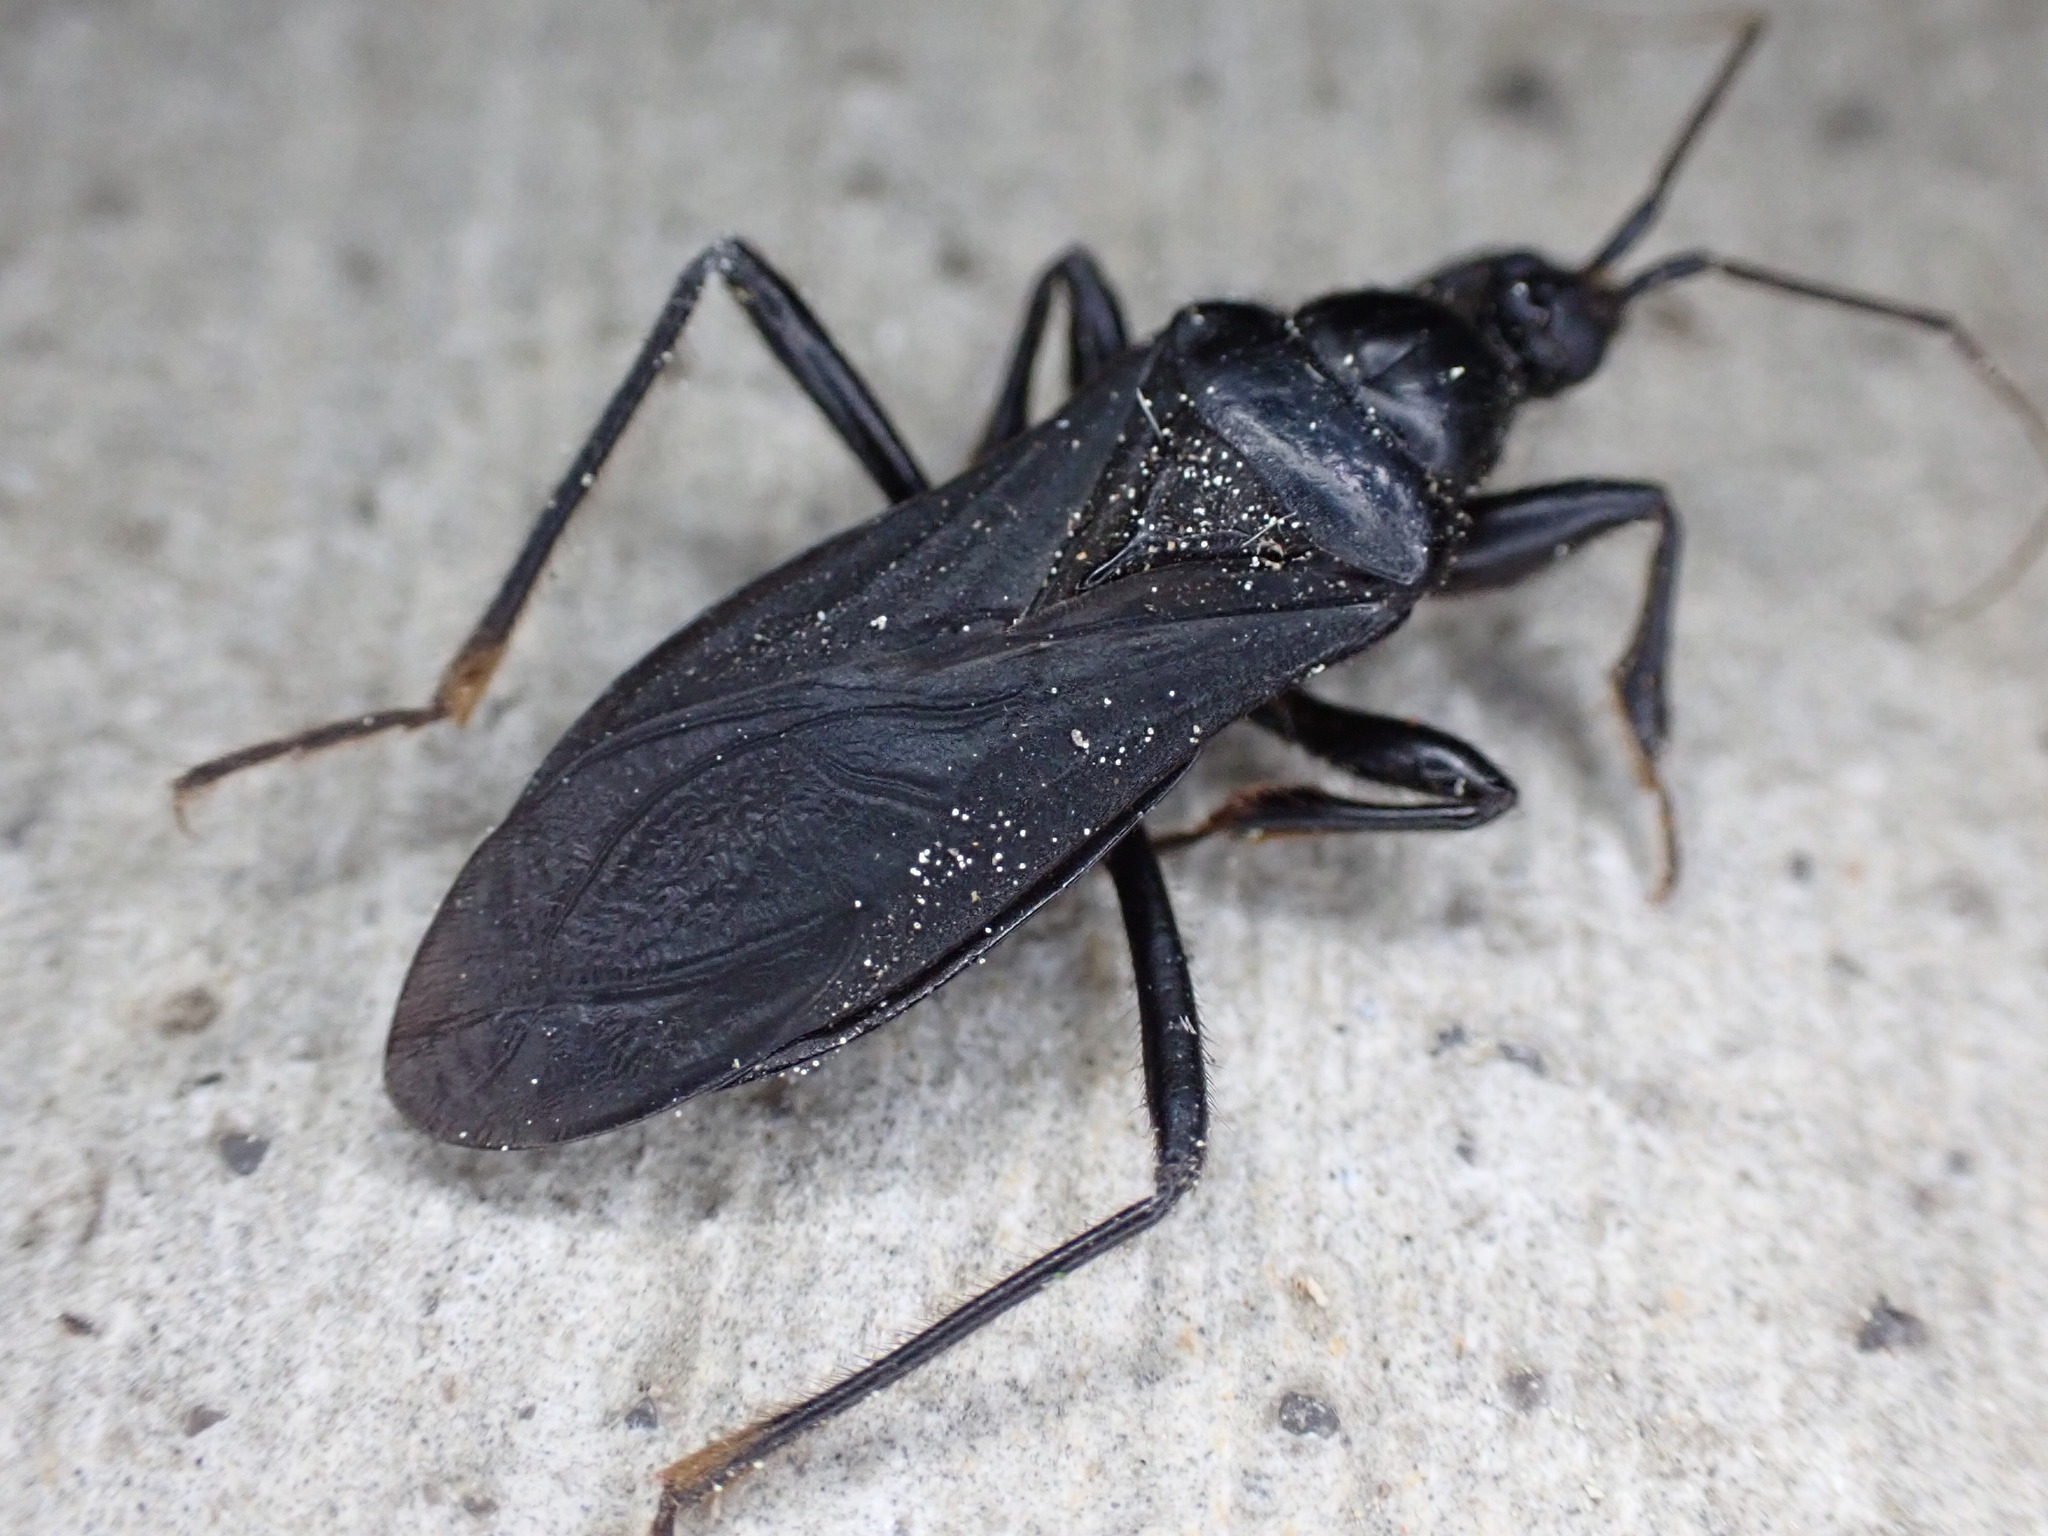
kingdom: Animalia
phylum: Arthropoda
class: Insecta
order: Hemiptera
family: Reduviidae
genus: Melanolestes
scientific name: Melanolestes picipes
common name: Assassin bug
